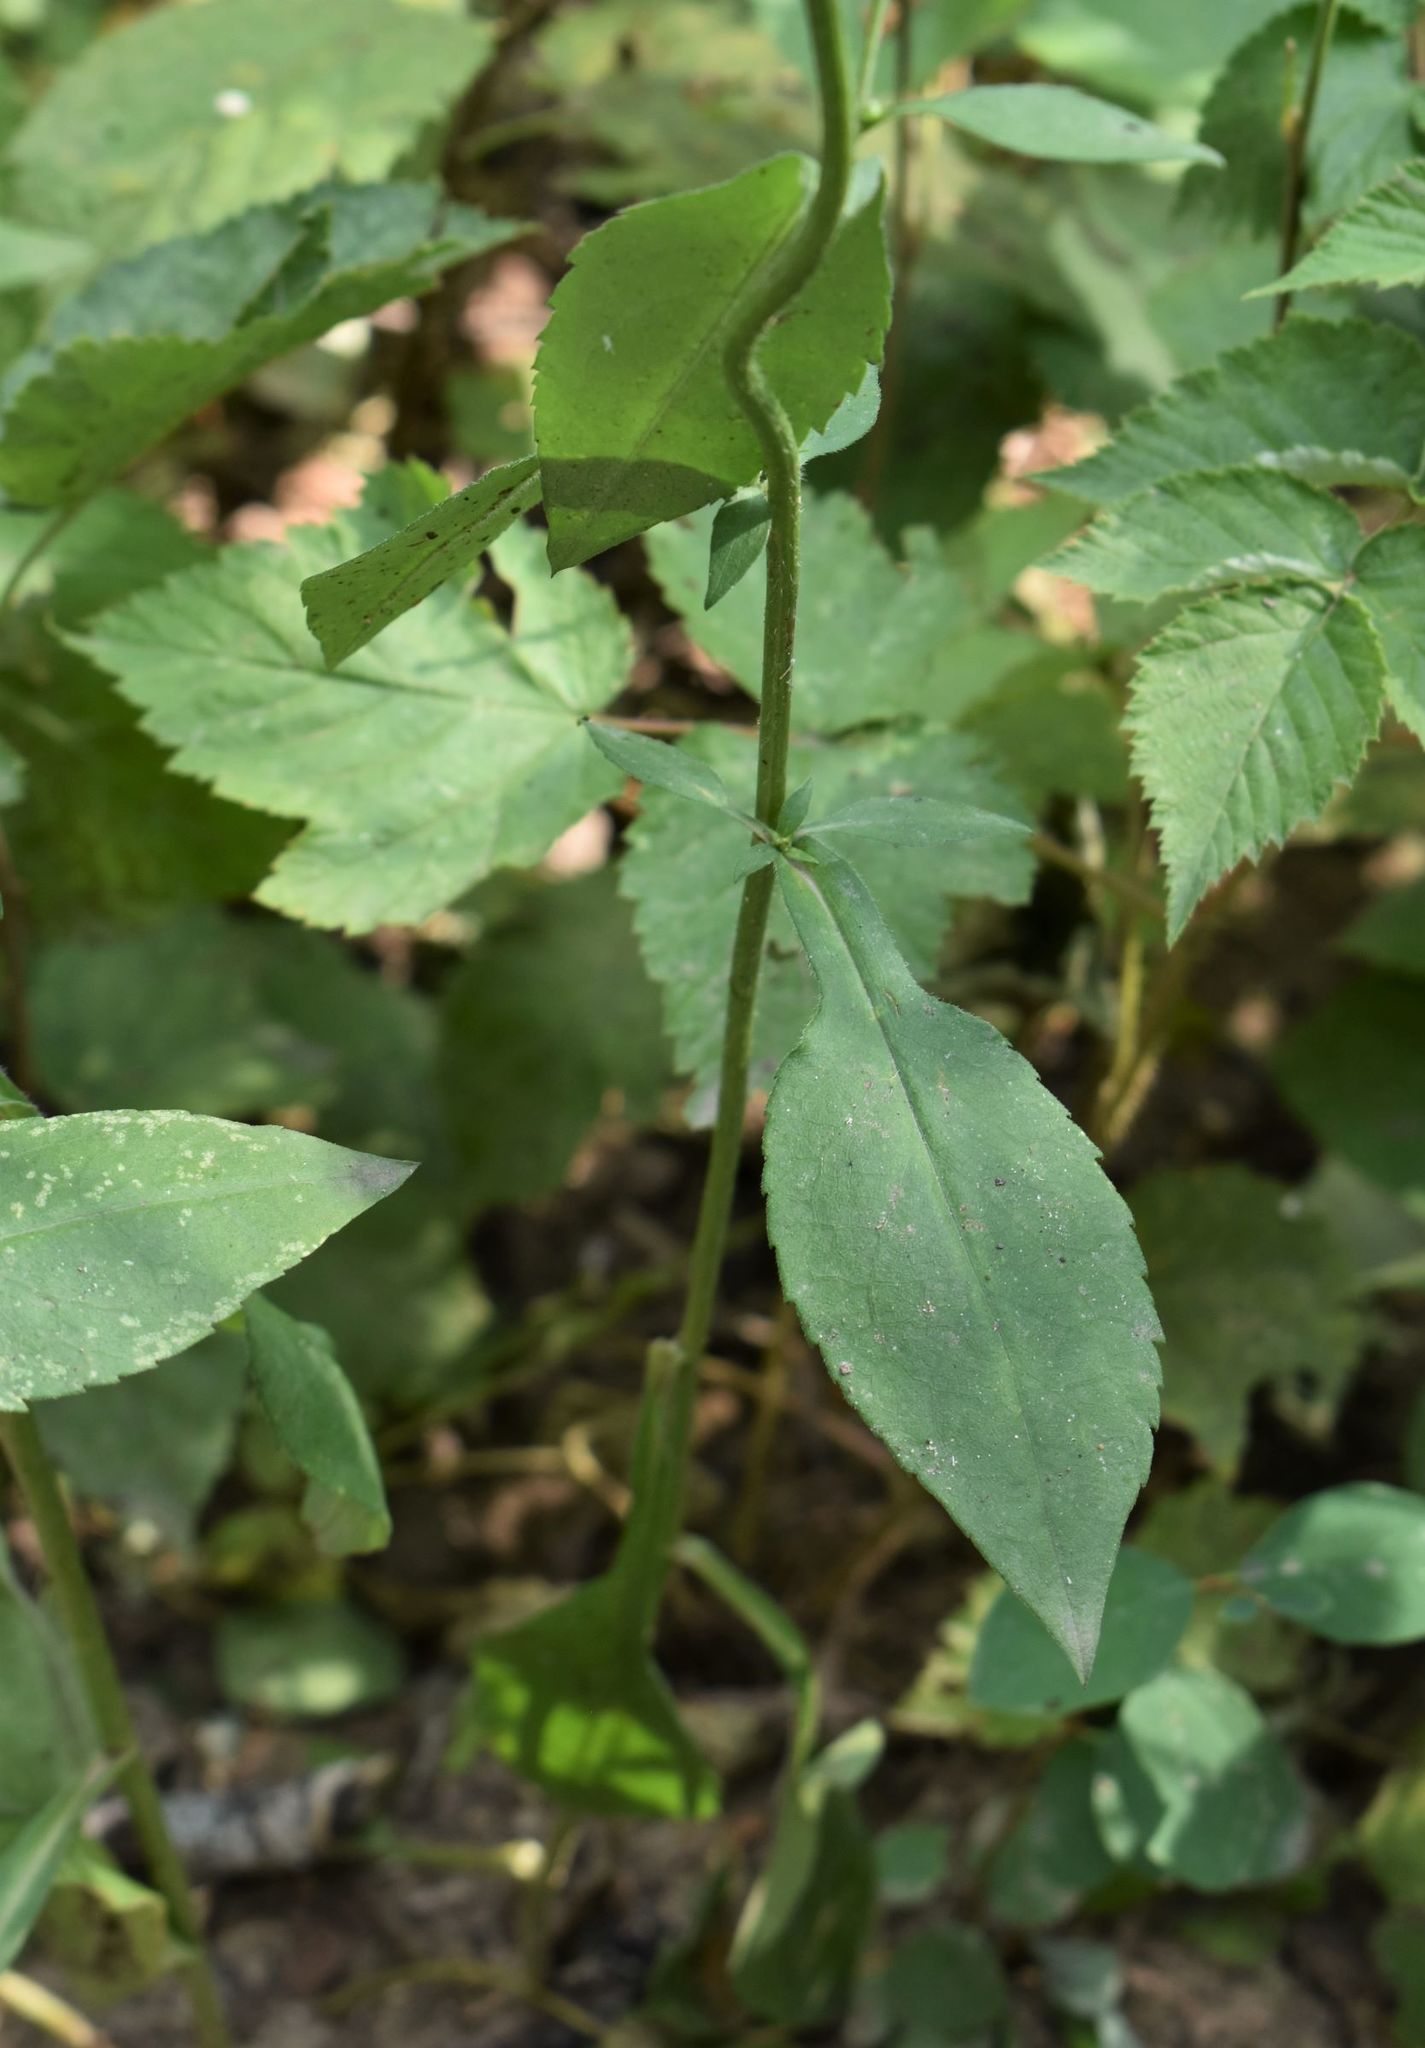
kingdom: Plantae
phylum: Tracheophyta
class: Magnoliopsida
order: Asterales
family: Asteraceae
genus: Symphyotrichum
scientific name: Symphyotrichum ciliolatum
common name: Fringed blue aster
